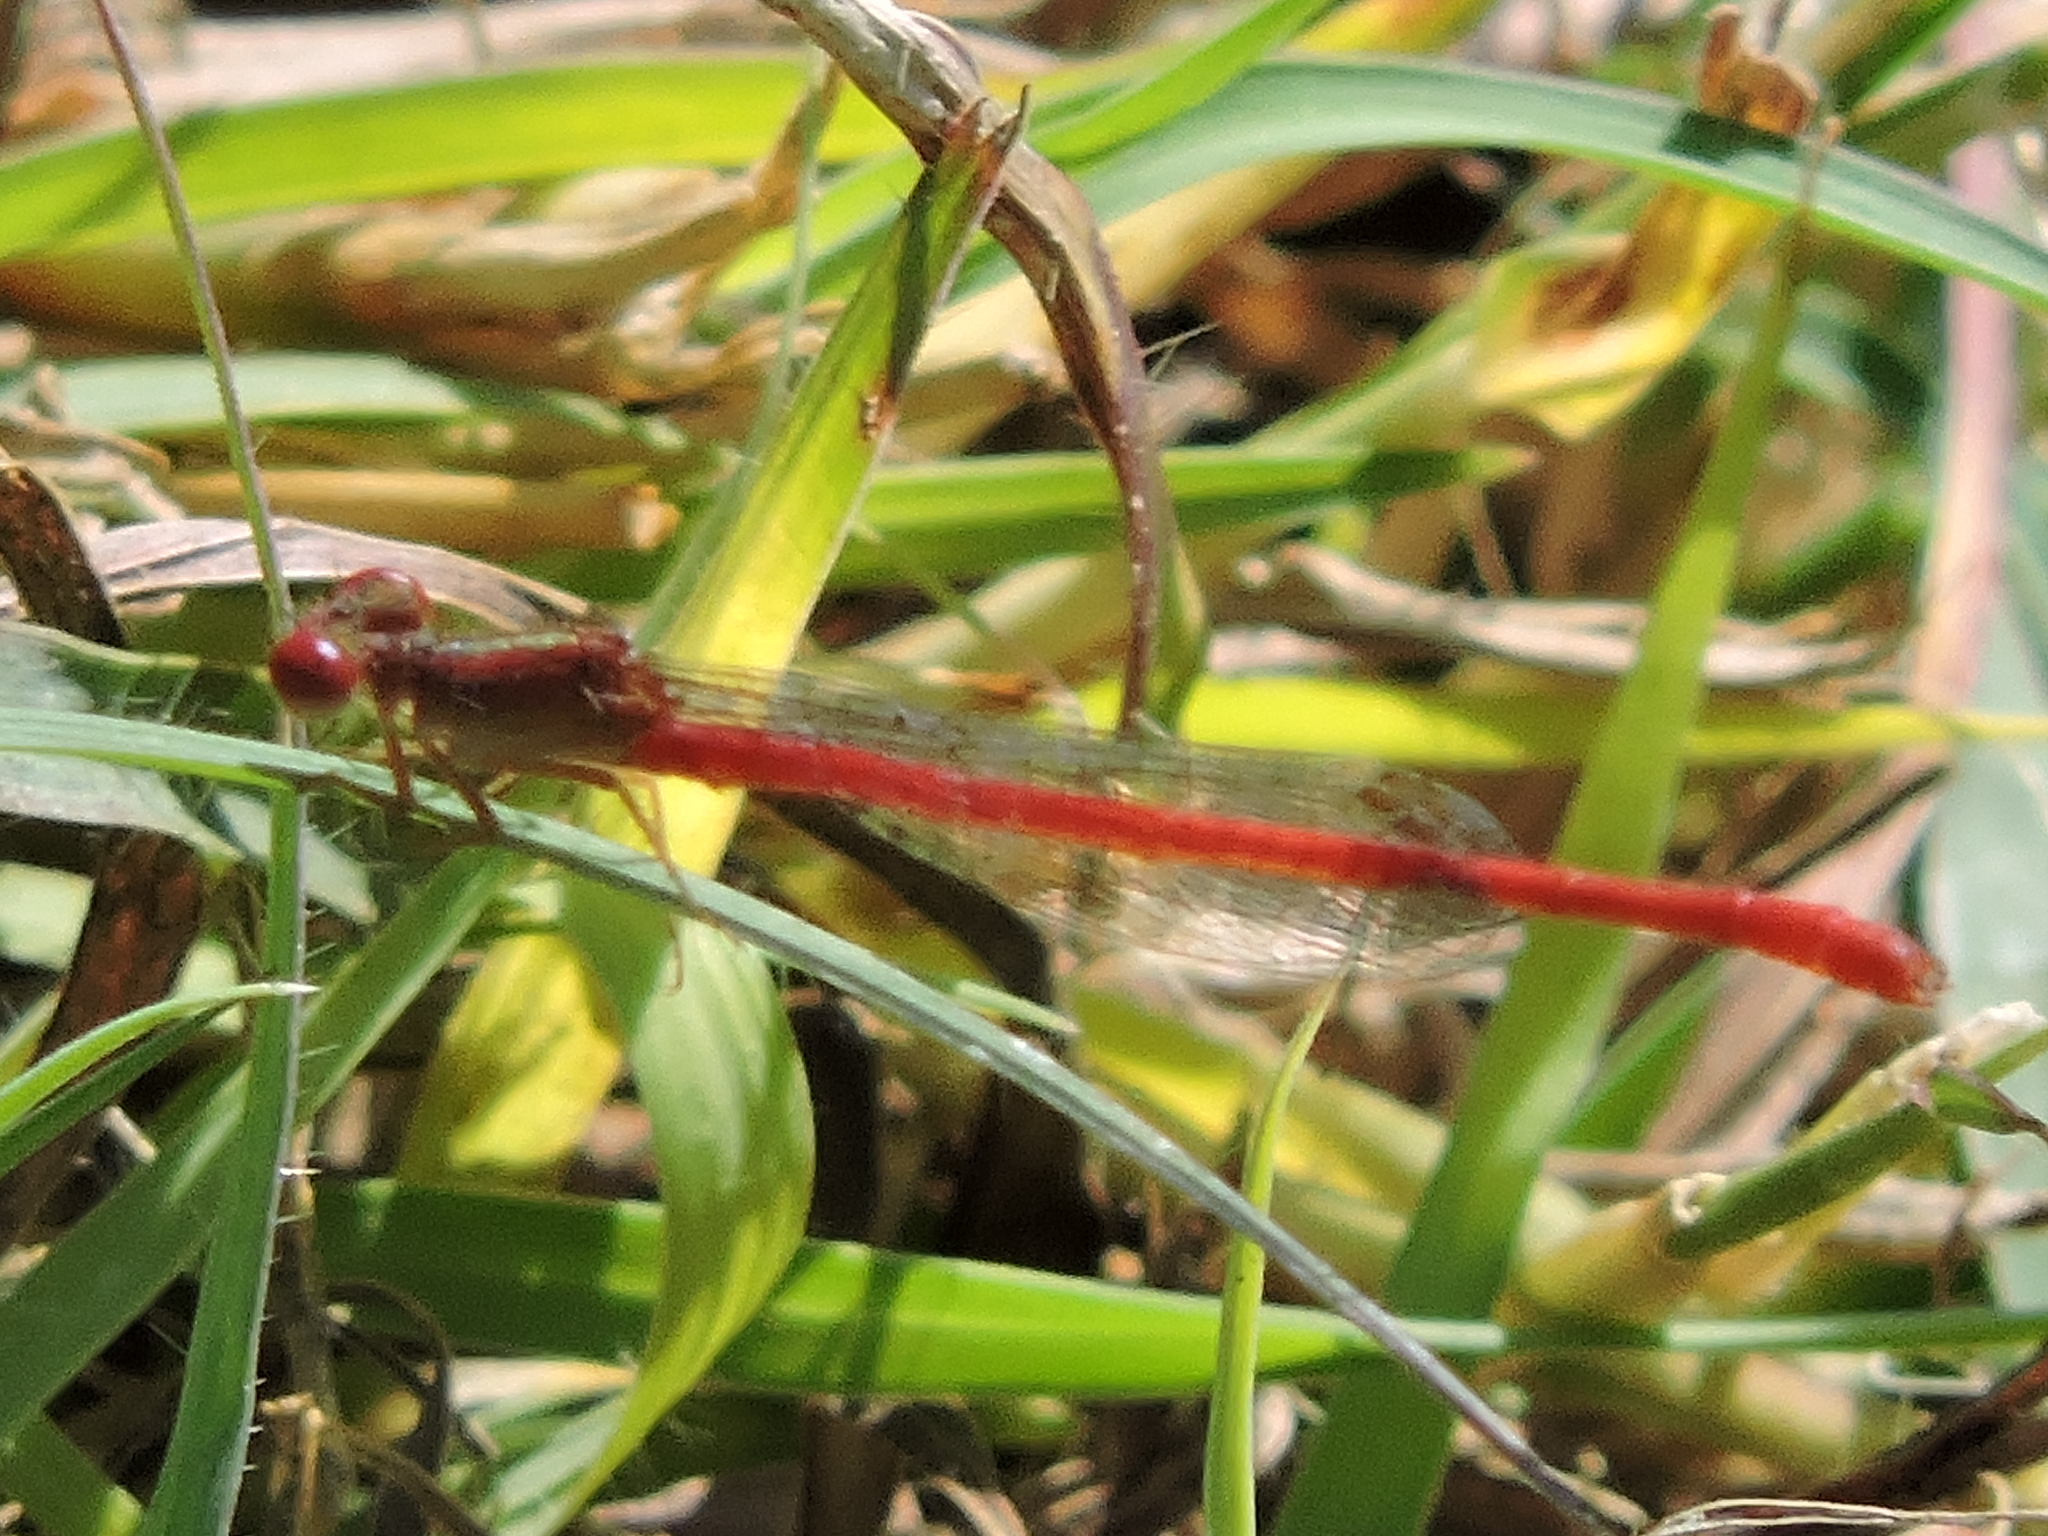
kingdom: Animalia
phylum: Arthropoda
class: Insecta
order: Odonata
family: Coenagrionidae
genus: Telebasis
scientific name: Telebasis salva
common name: Desert firetail
